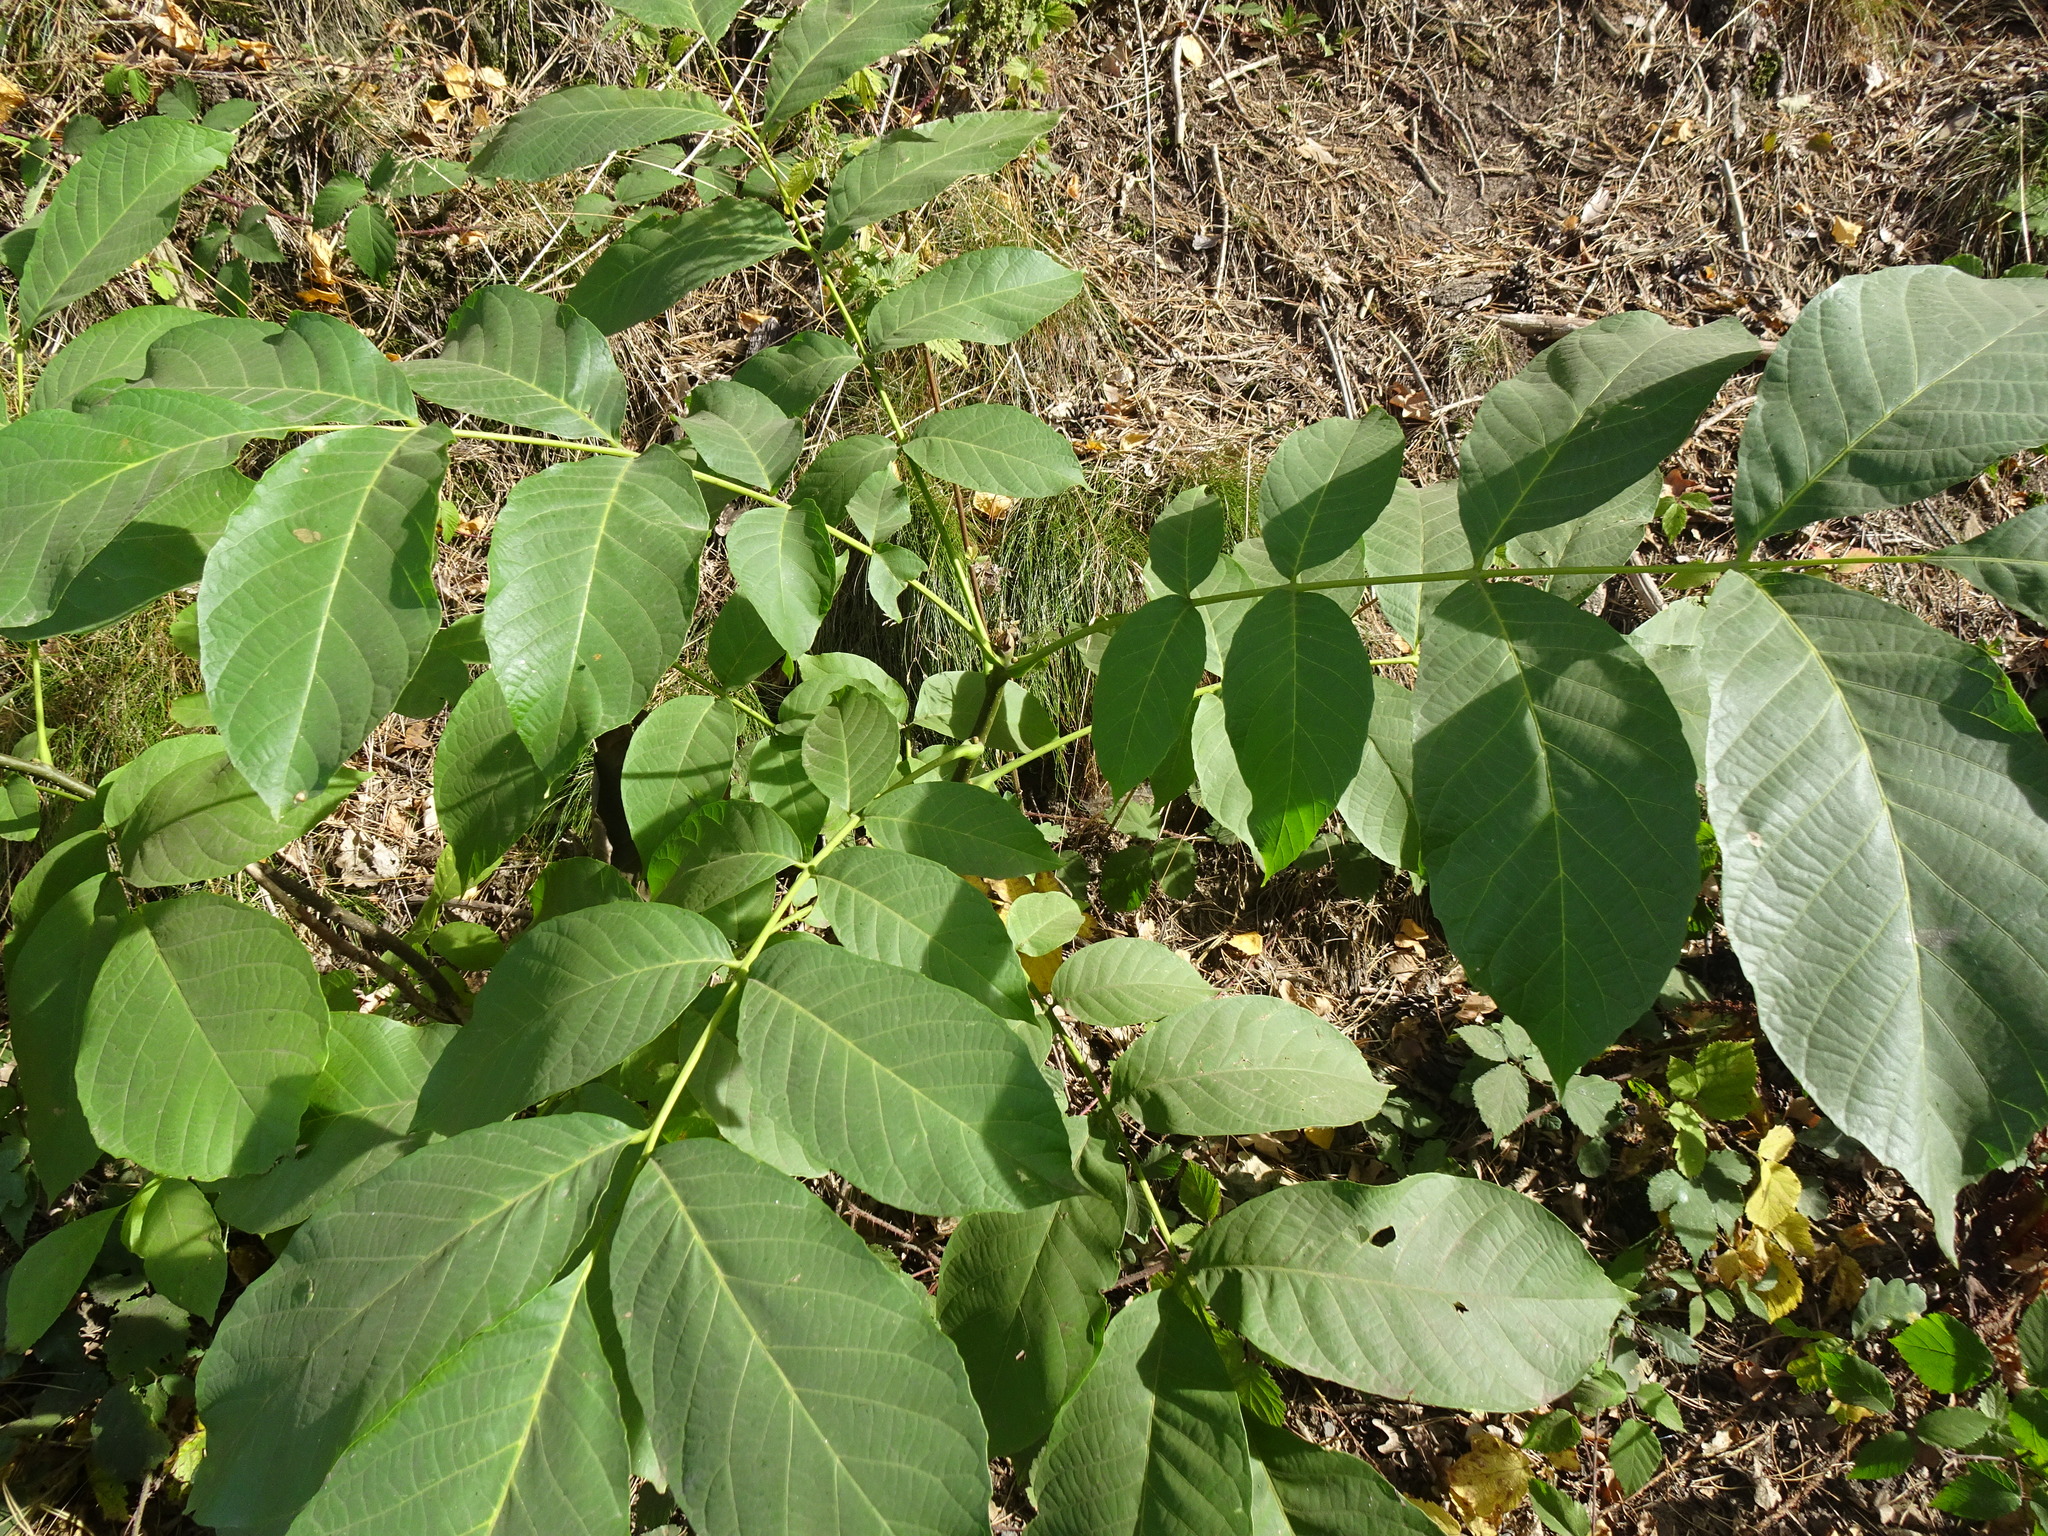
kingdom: Plantae
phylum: Tracheophyta
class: Magnoliopsida
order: Fagales
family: Juglandaceae
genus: Juglans
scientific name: Juglans regia
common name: Walnut
